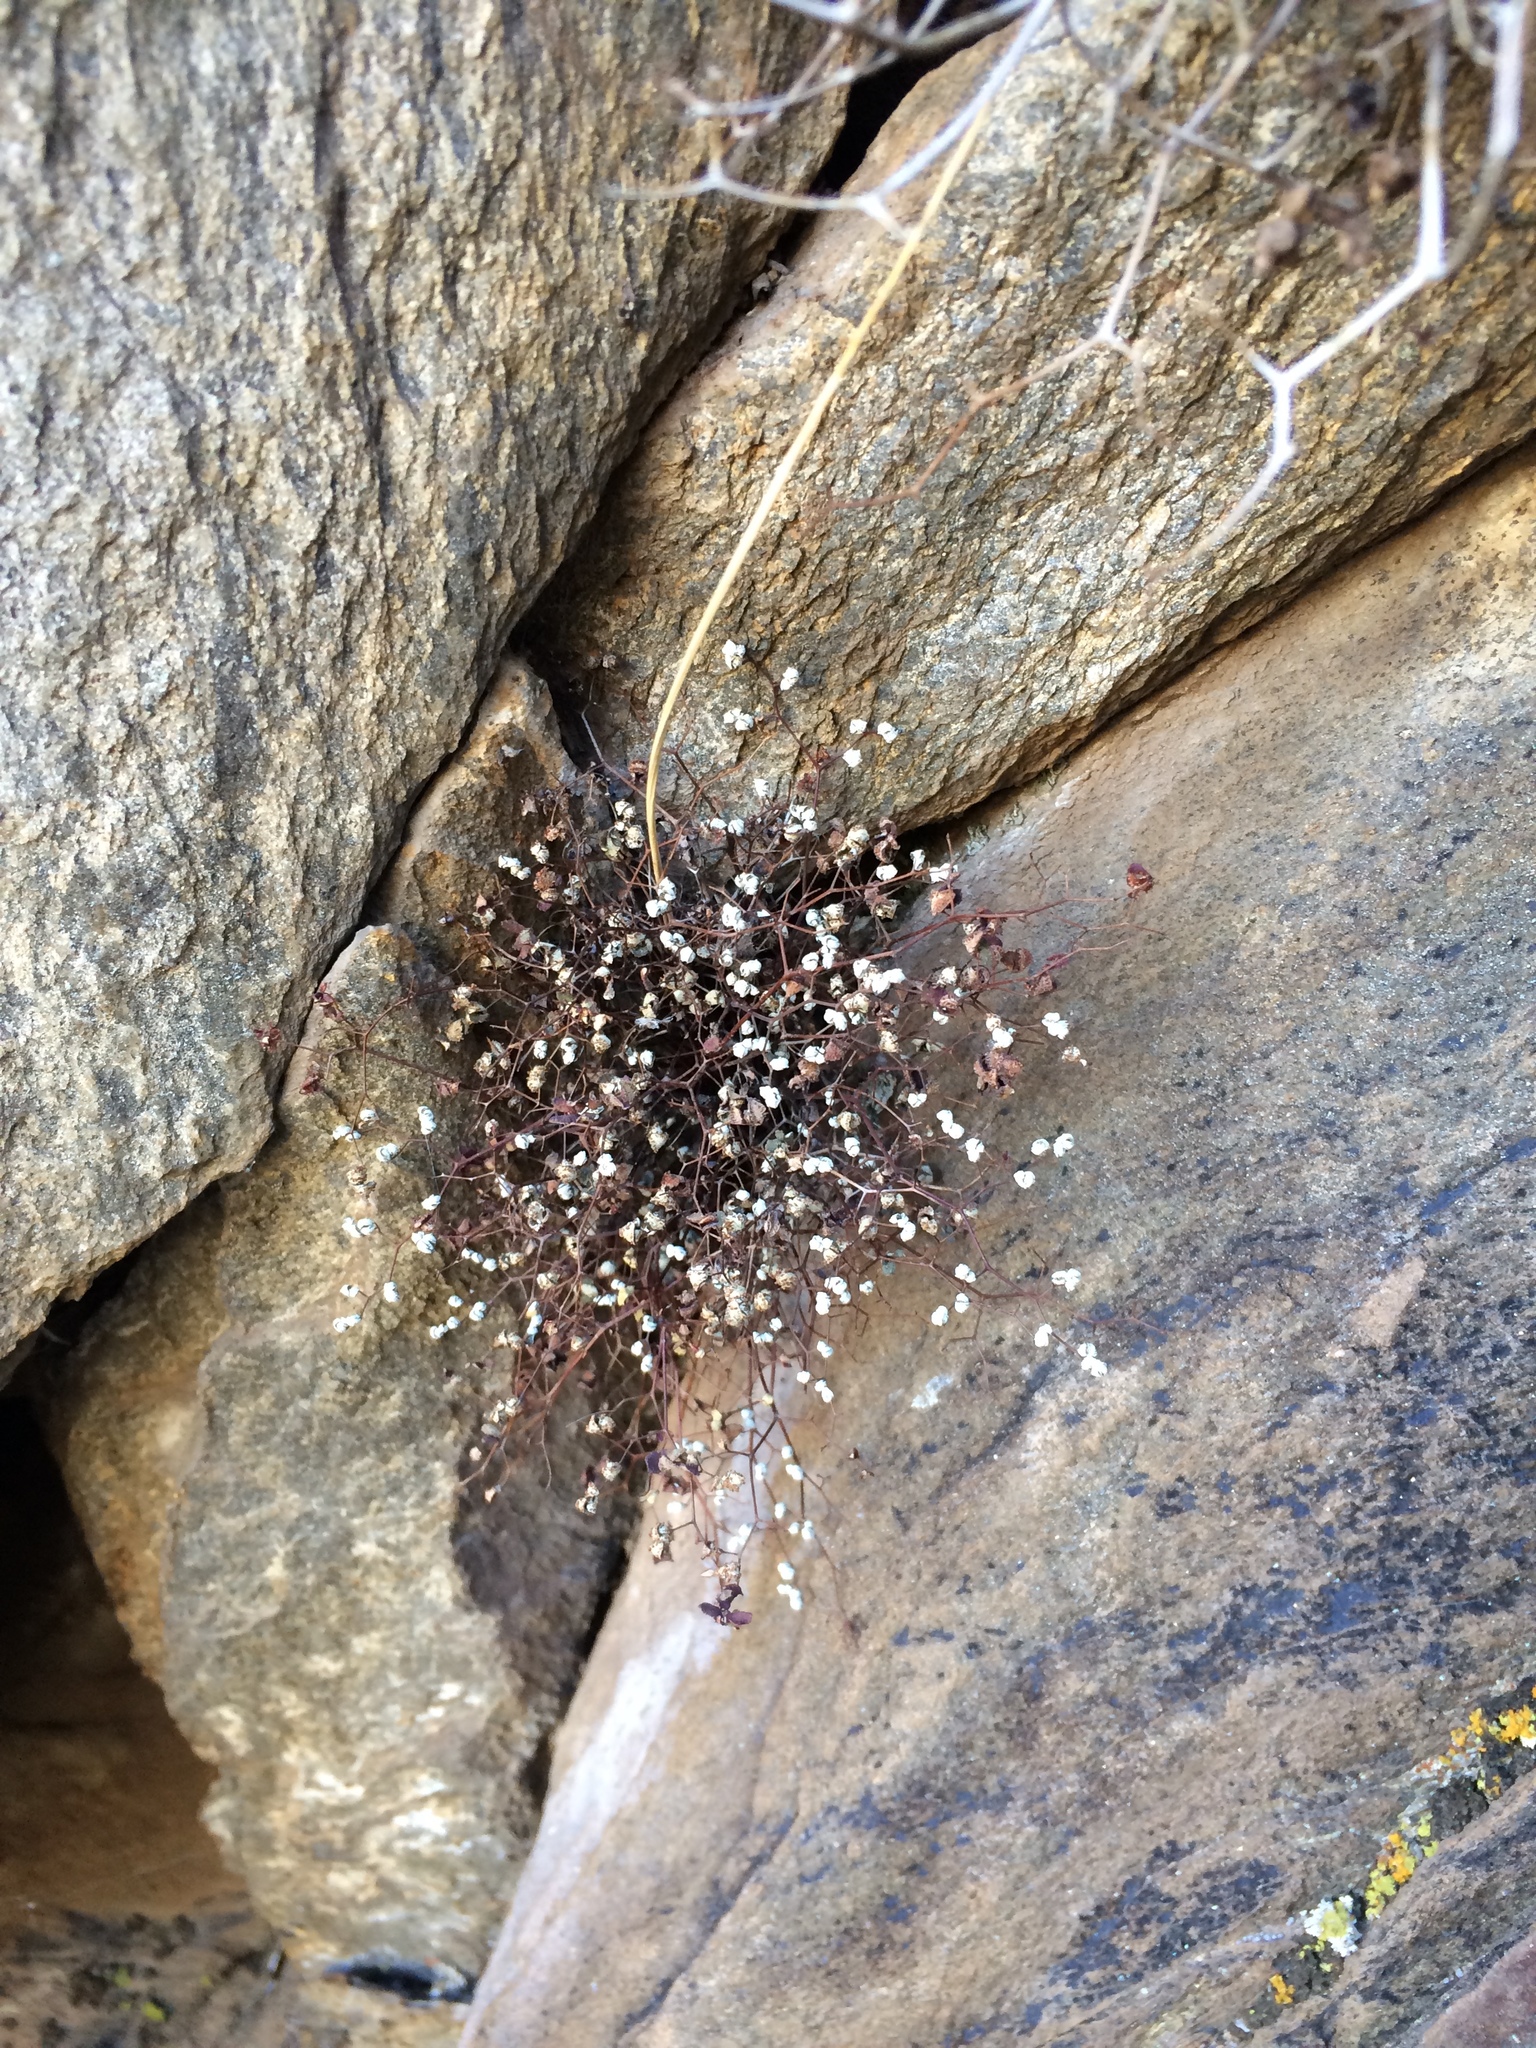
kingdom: Plantae
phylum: Tracheophyta
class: Polypodiopsida
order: Polypodiales
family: Pteridaceae
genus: Argyrochosma
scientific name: Argyrochosma fendleri
